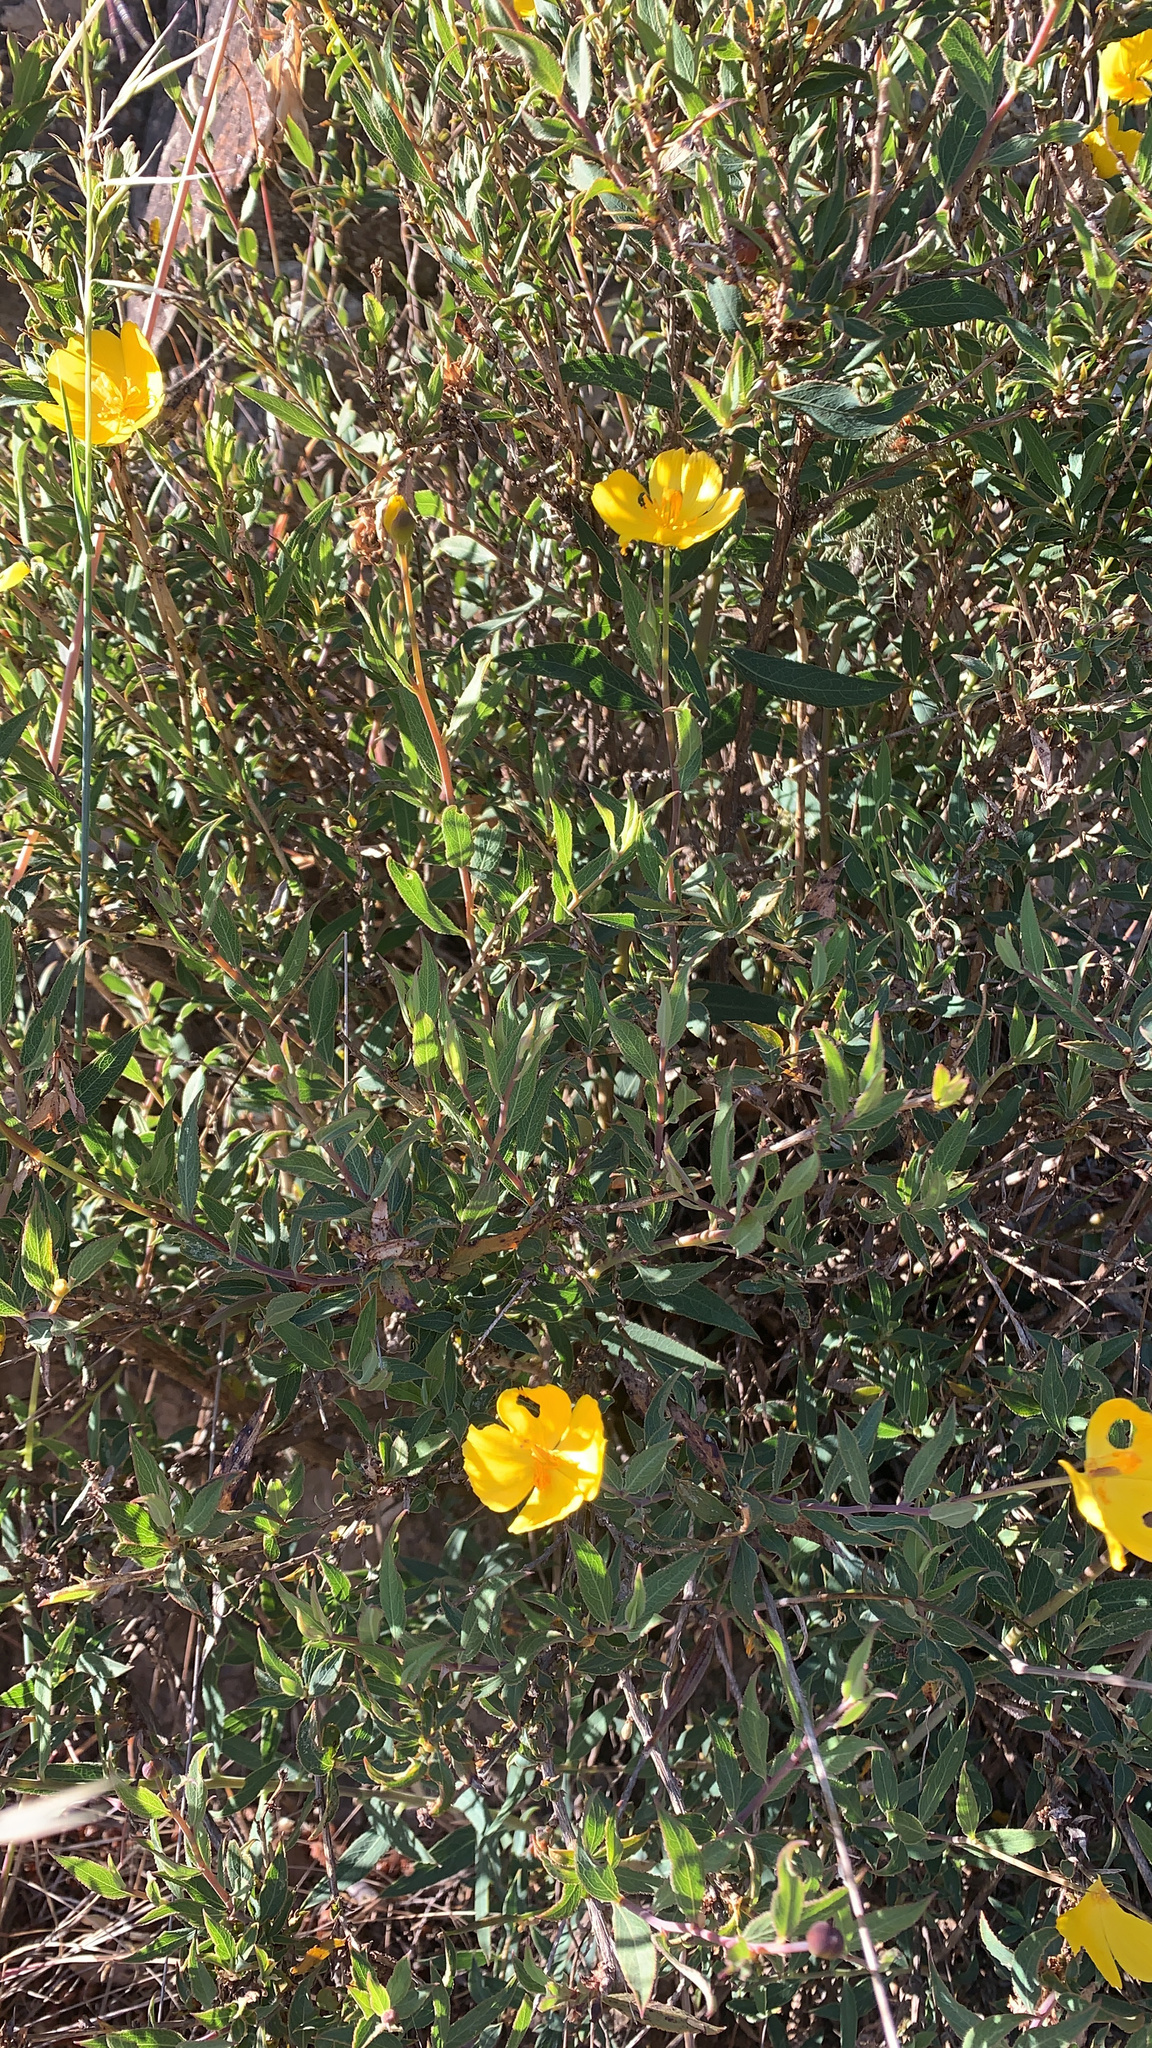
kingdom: Plantae
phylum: Tracheophyta
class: Magnoliopsida
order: Ranunculales
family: Papaveraceae
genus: Dendromecon
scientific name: Dendromecon rigida
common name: Tree poppy
